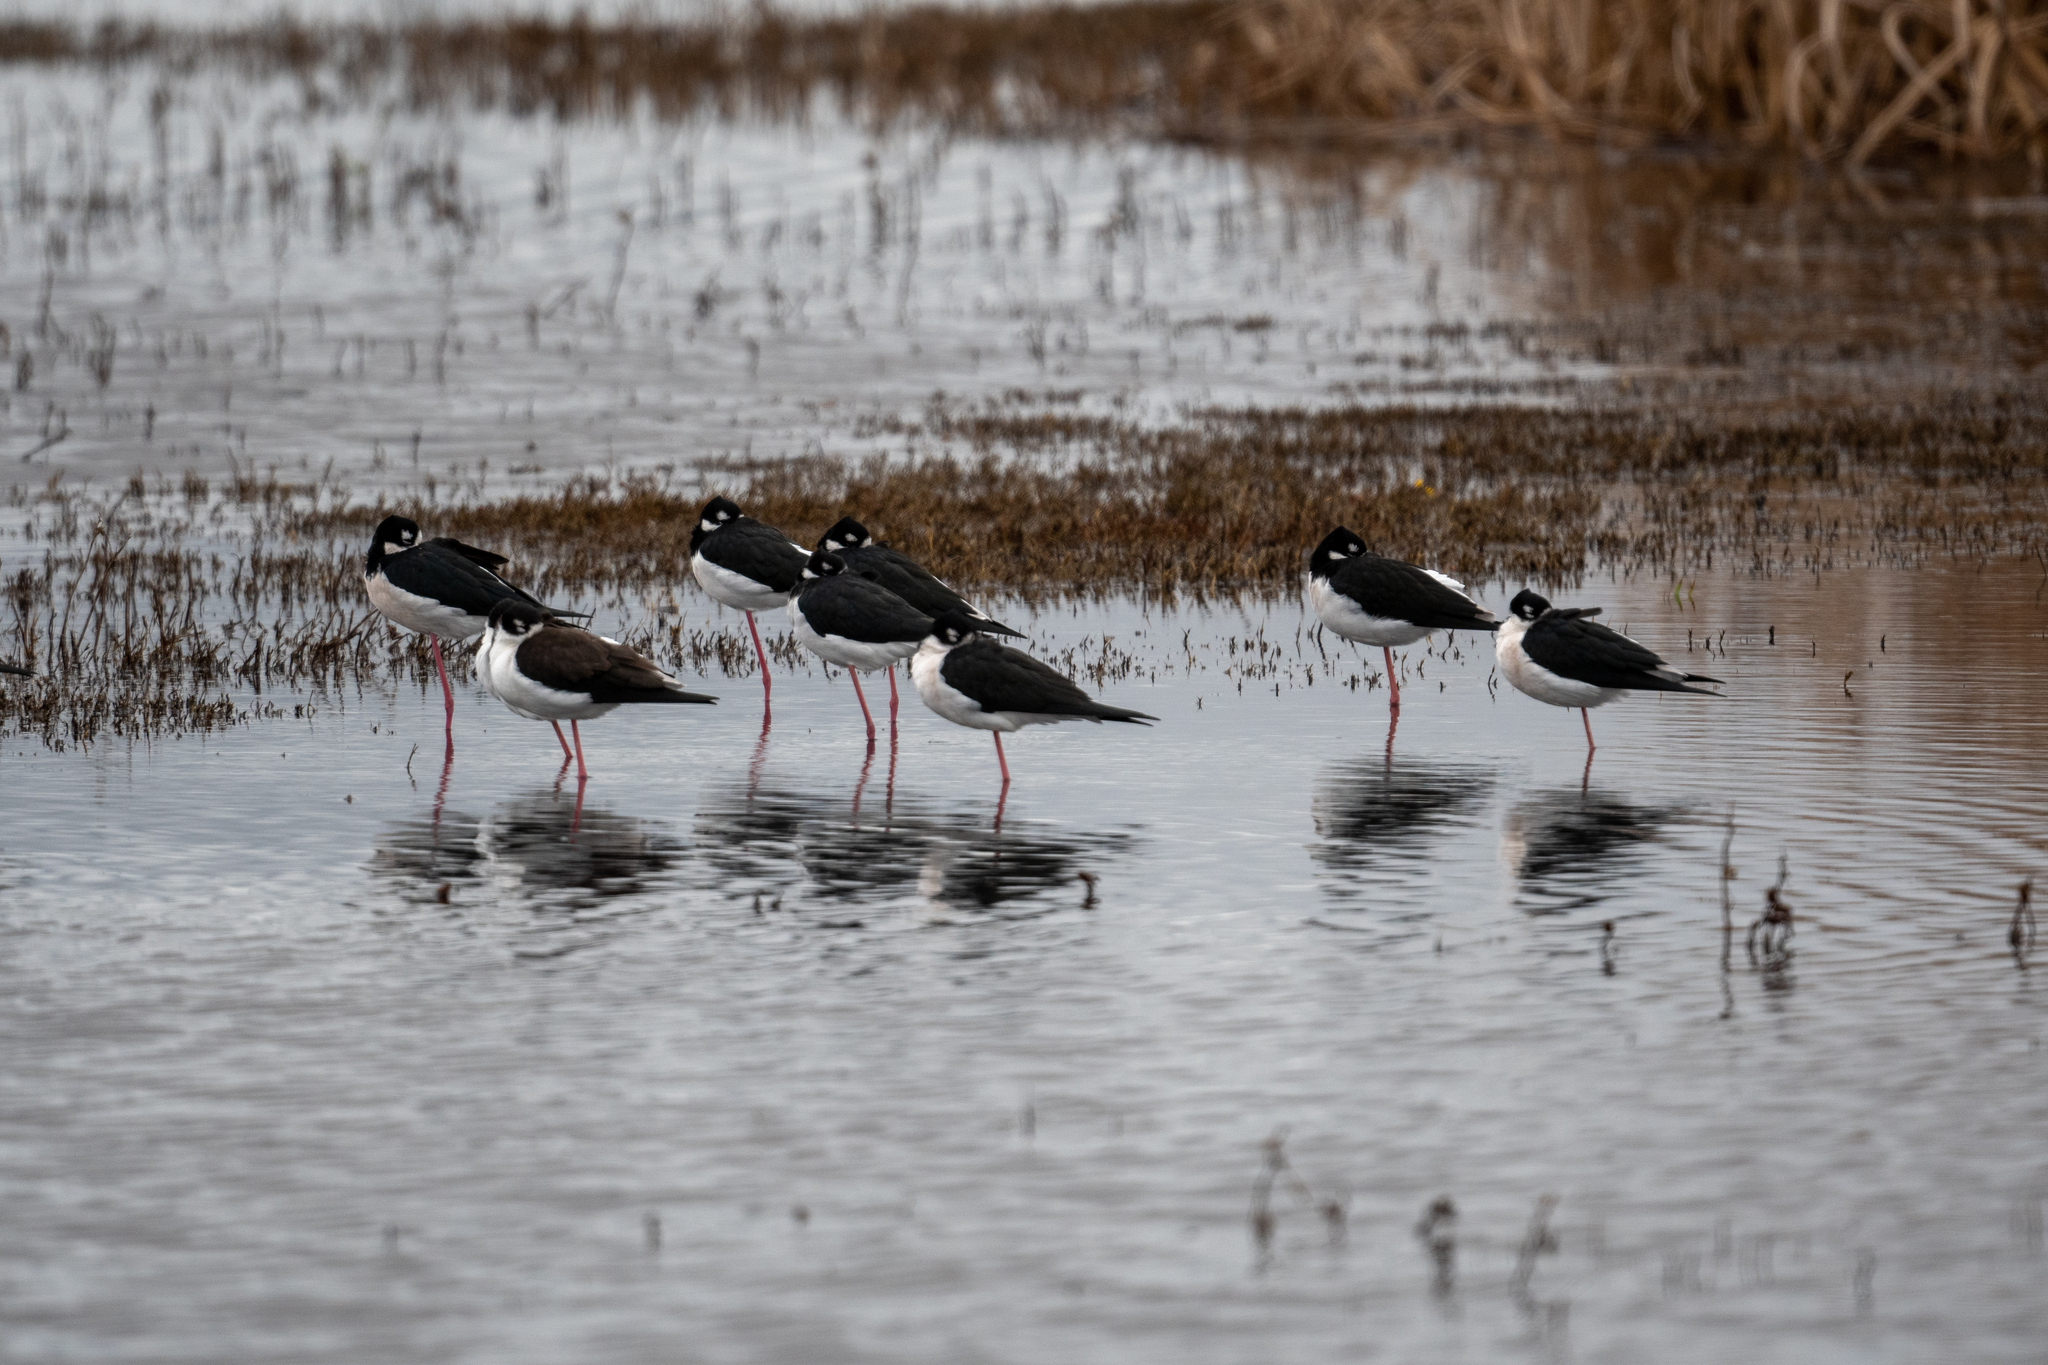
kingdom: Animalia
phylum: Chordata
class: Aves
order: Charadriiformes
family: Recurvirostridae
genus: Himantopus
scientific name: Himantopus mexicanus
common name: Black-necked stilt
